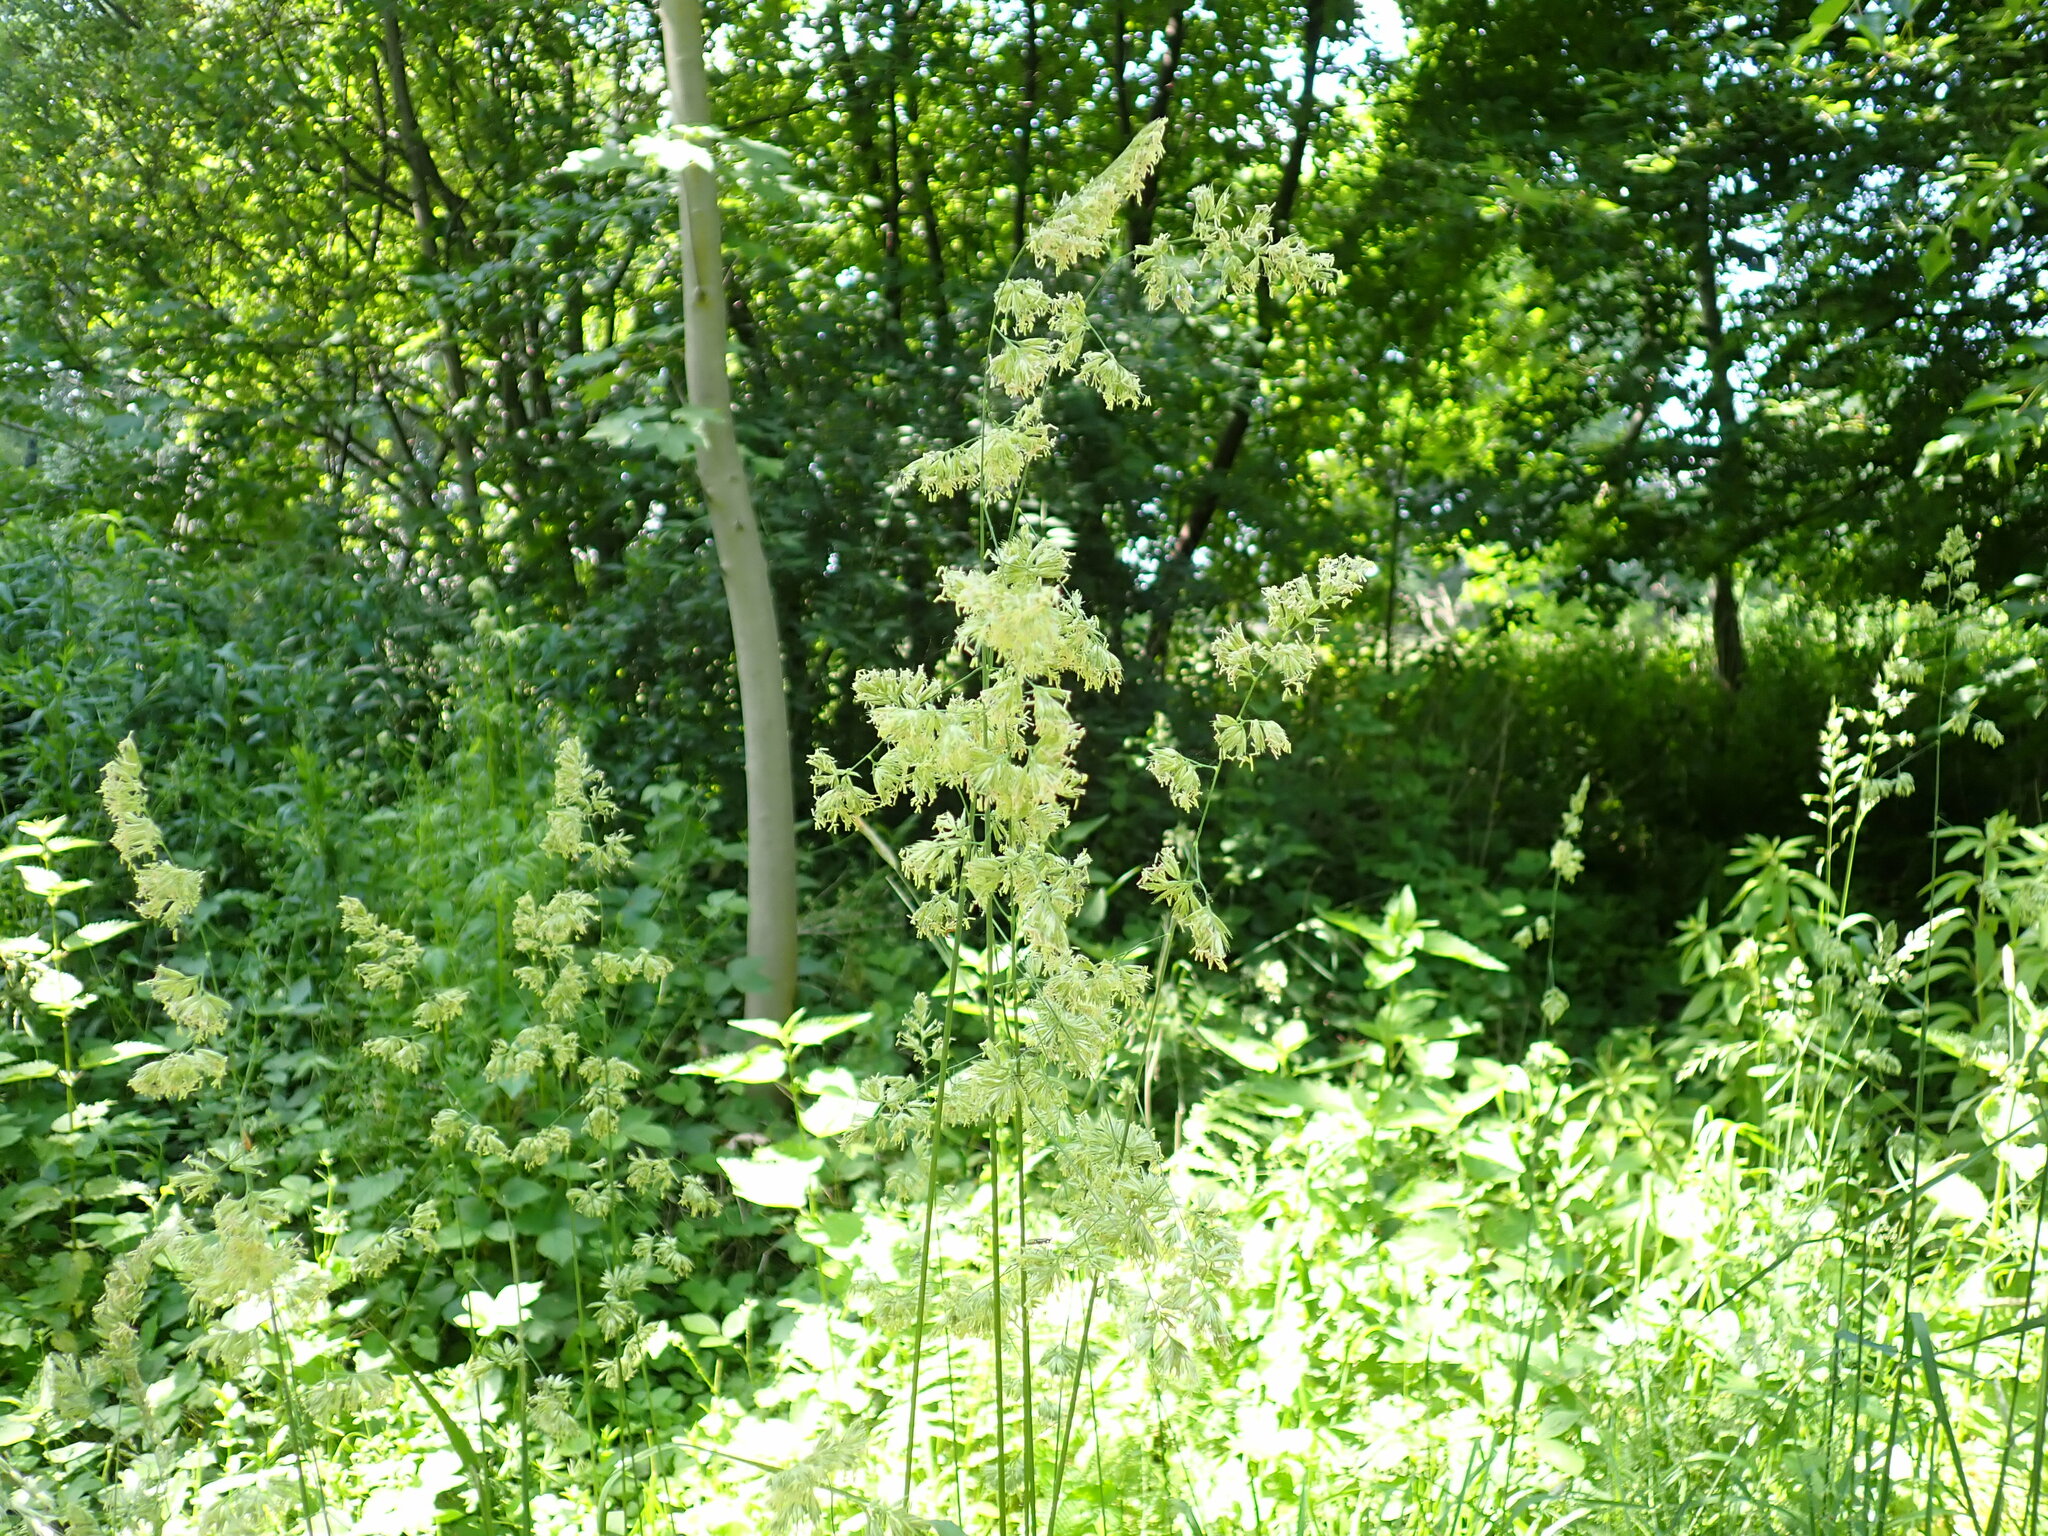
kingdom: Plantae
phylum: Tracheophyta
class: Liliopsida
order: Poales
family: Poaceae
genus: Dactylis
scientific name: Dactylis glomerata
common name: Orchardgrass
